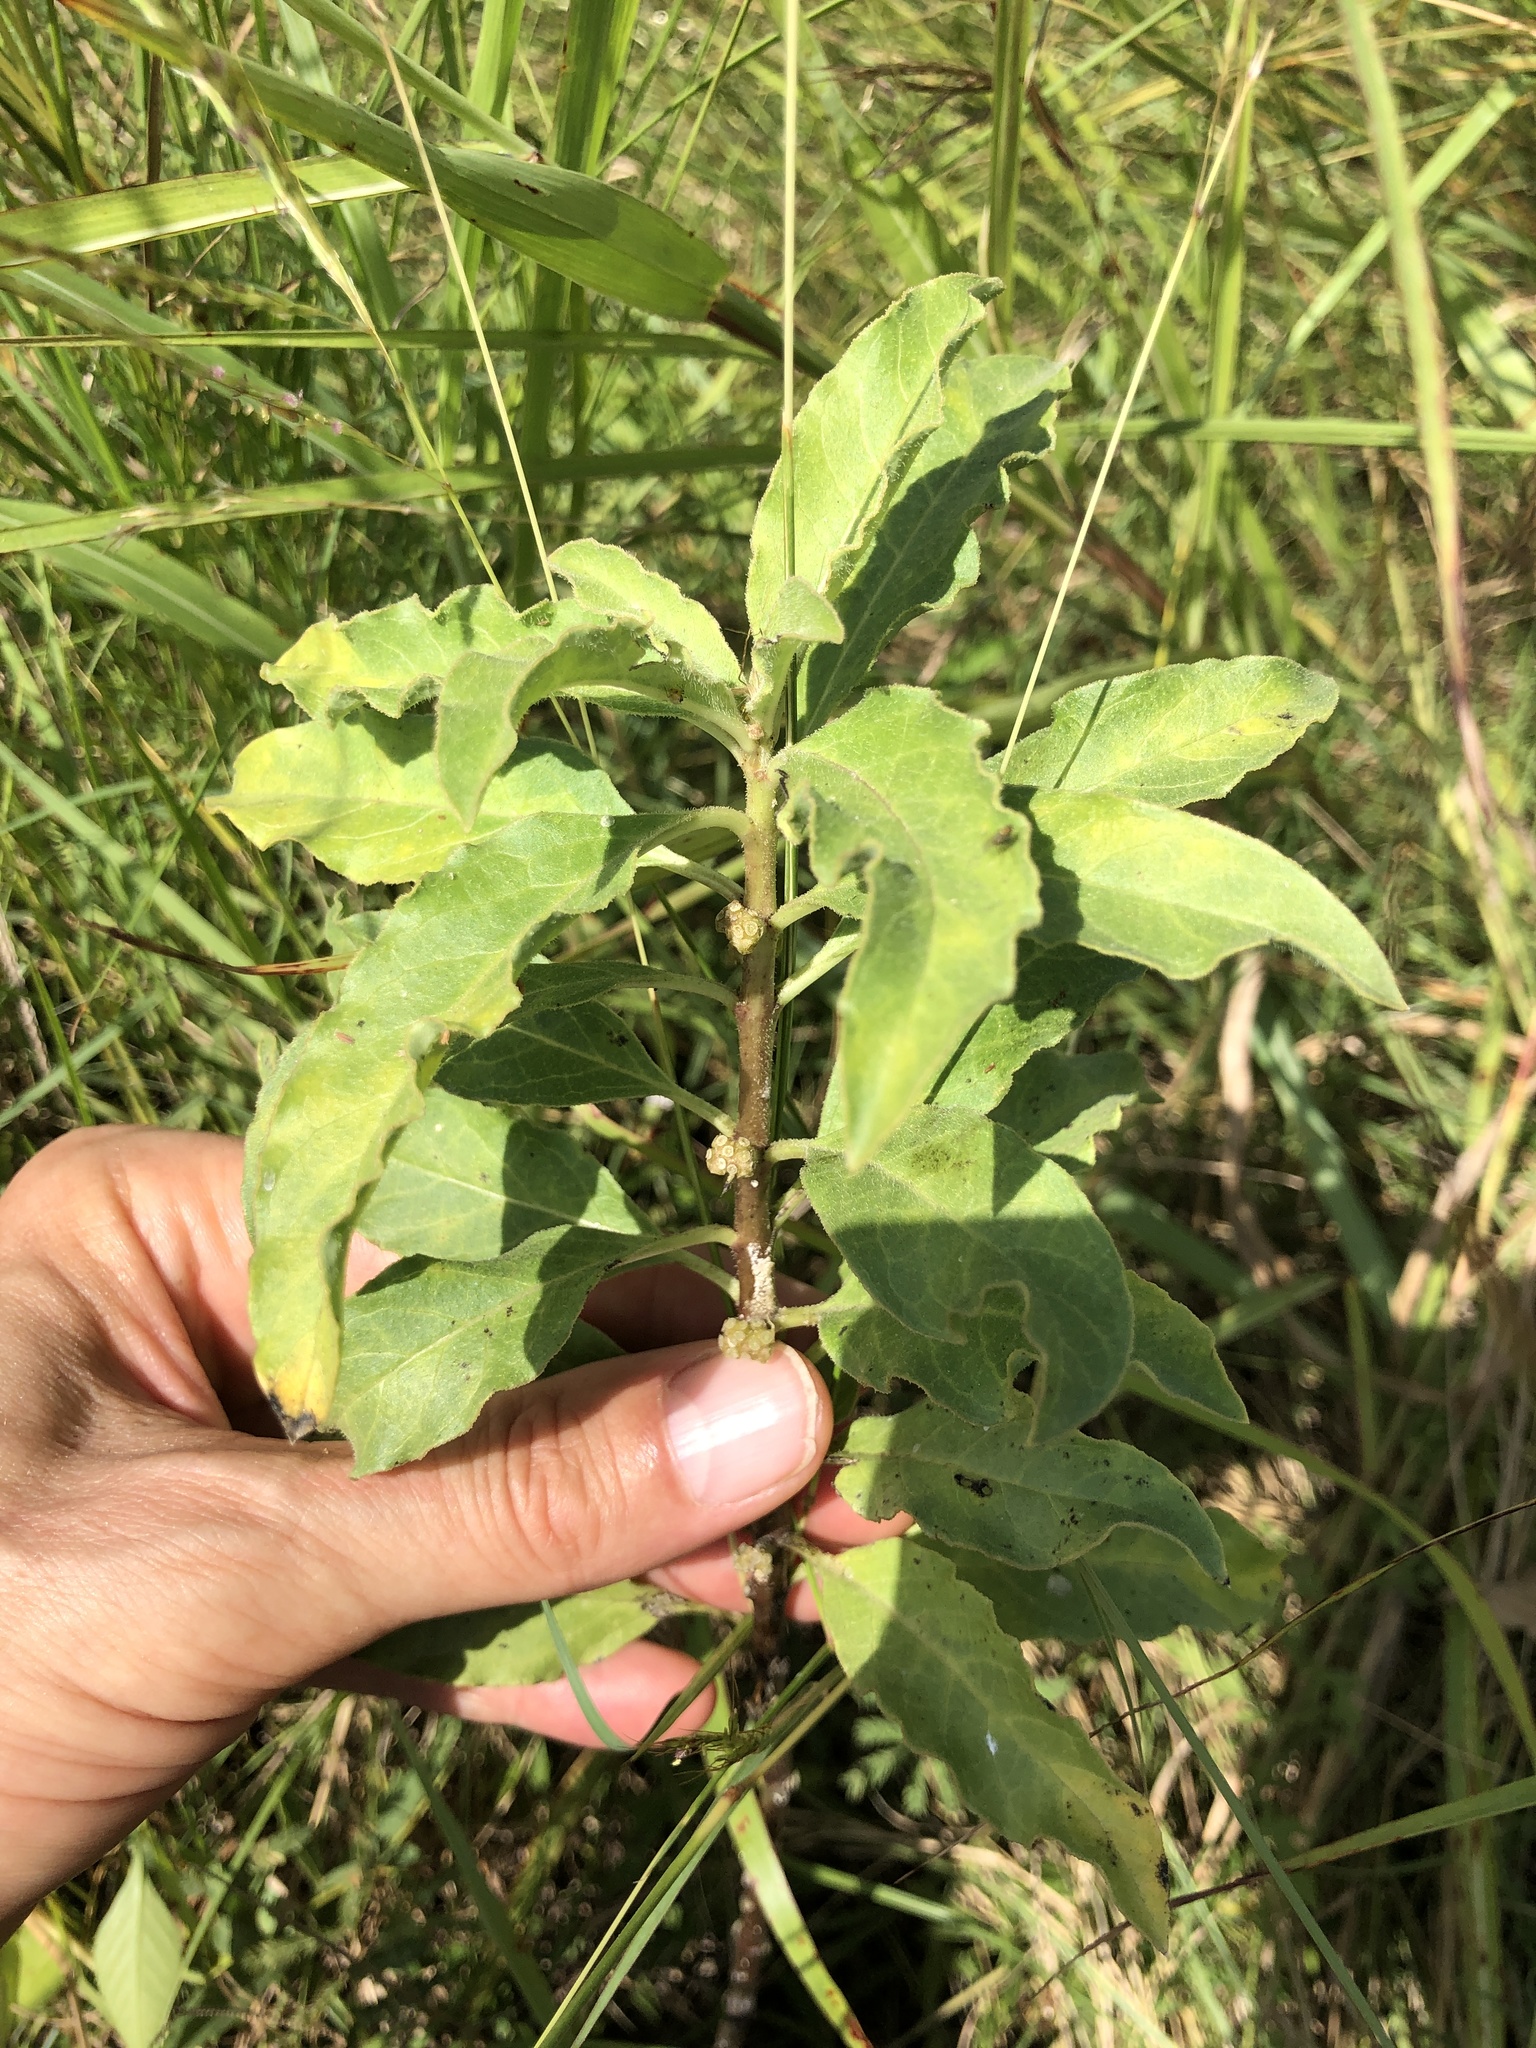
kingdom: Plantae
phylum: Tracheophyta
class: Magnoliopsida
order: Gentianales
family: Apocynaceae
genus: Asclepias
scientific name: Asclepias oenotheroides
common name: Zizotes milkweed
